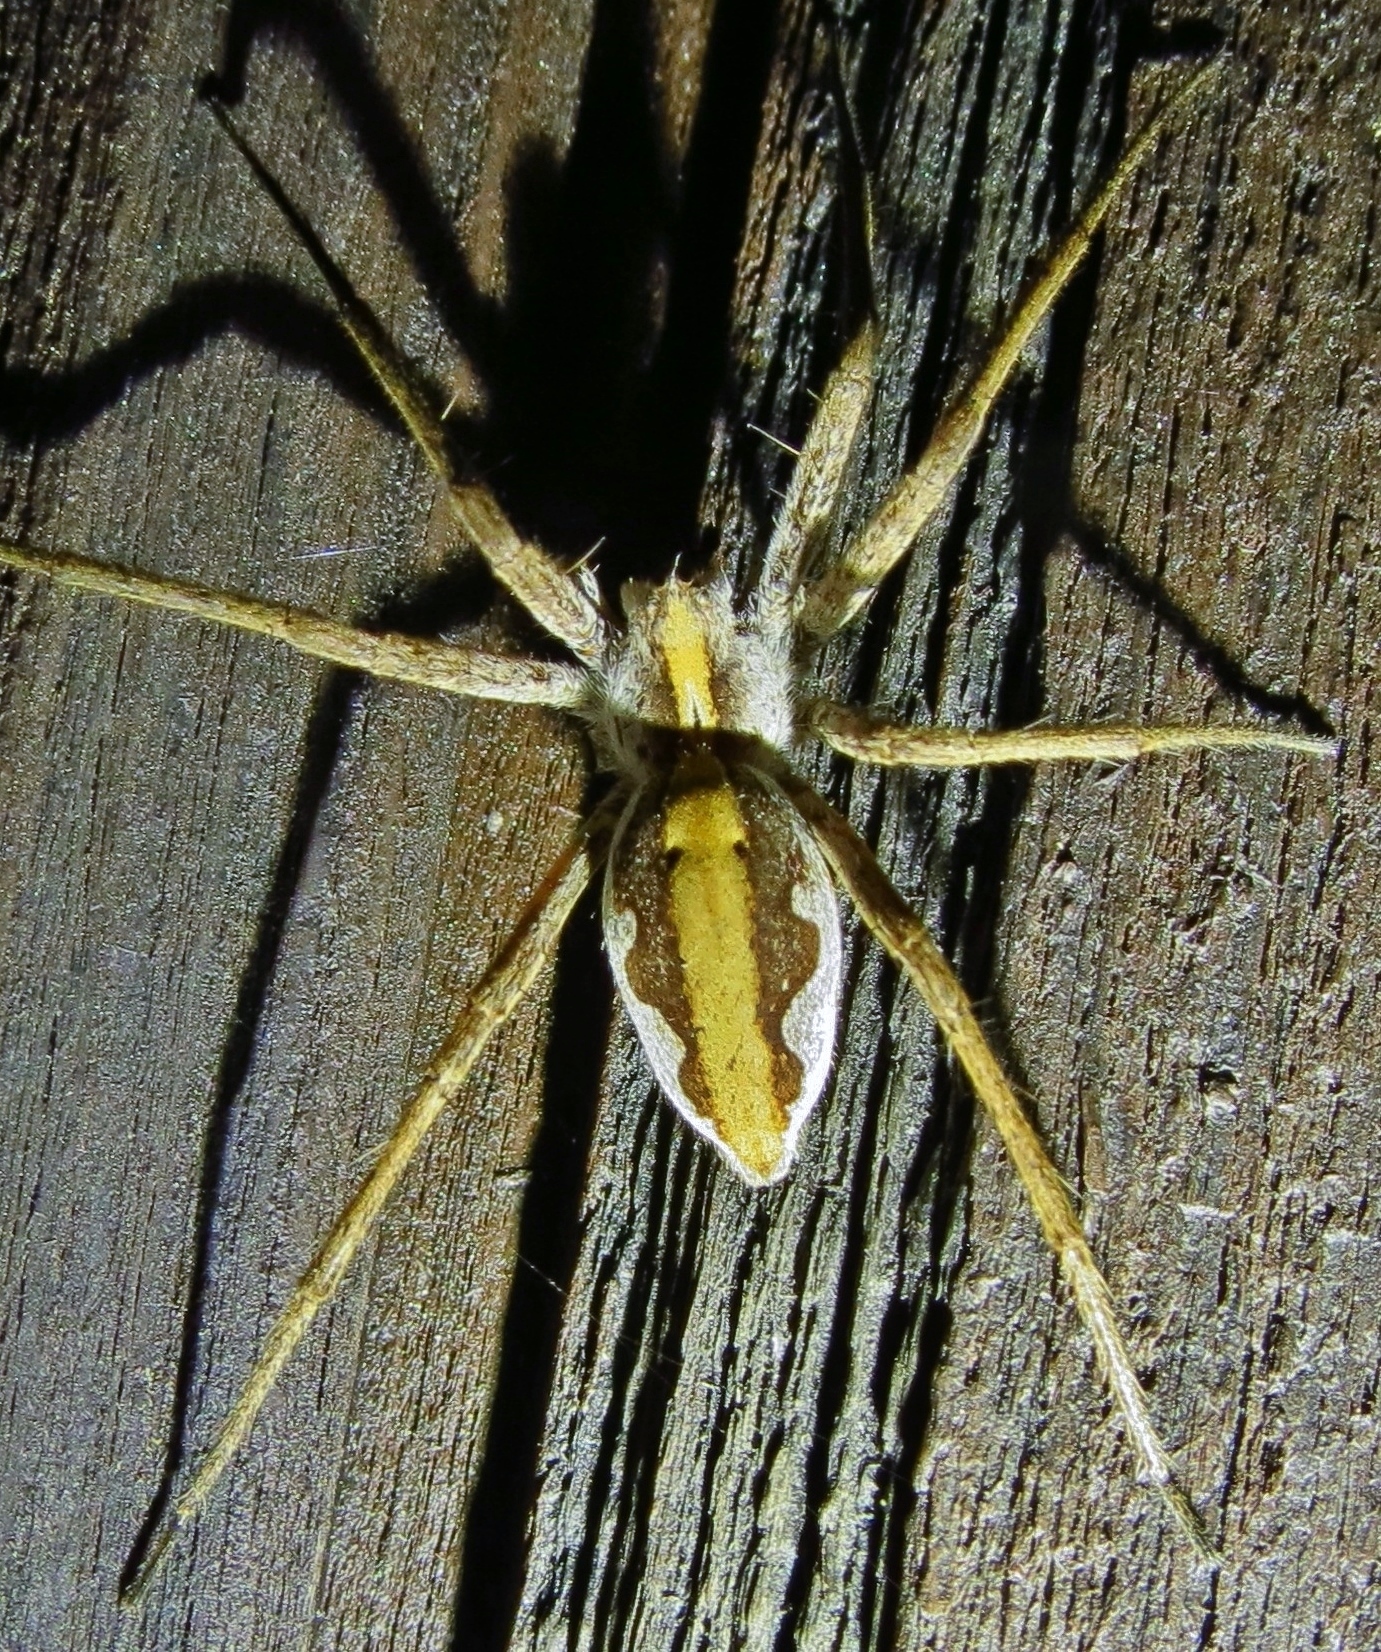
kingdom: Animalia
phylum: Arthropoda
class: Arachnida
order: Araneae
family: Pisauridae
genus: Pisaura
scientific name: Pisaura mirabilis
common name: Tent spider
